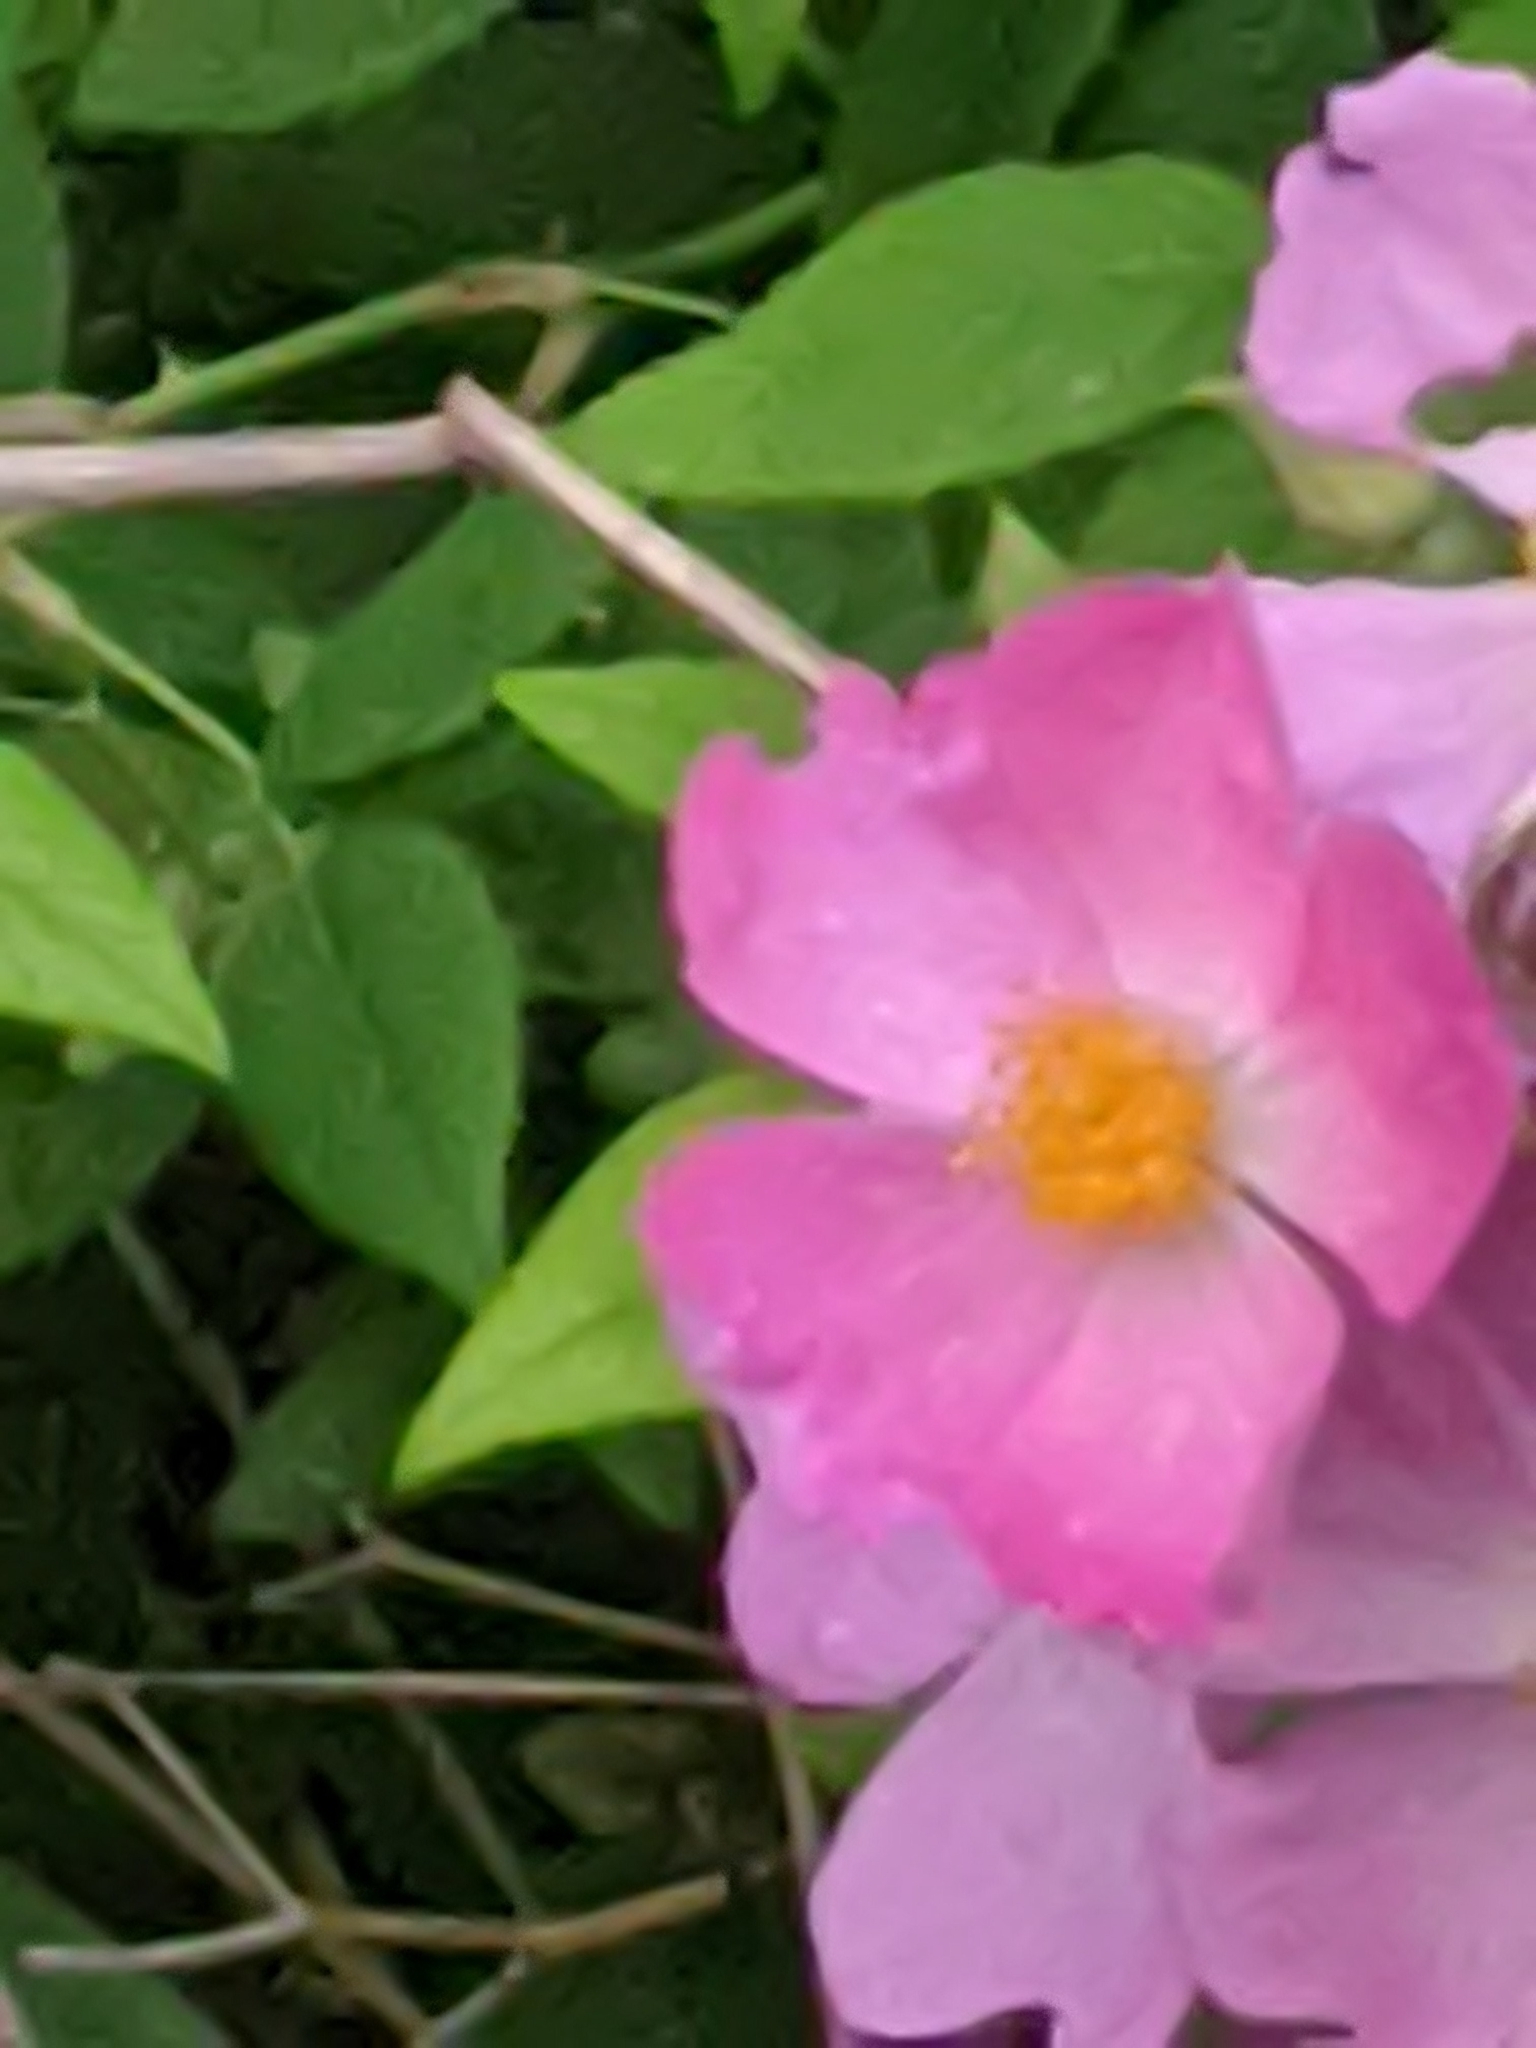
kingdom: Plantae
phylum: Tracheophyta
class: Magnoliopsida
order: Rosales
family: Rosaceae
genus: Rosa
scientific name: Rosa setigera
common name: Prairie rose
